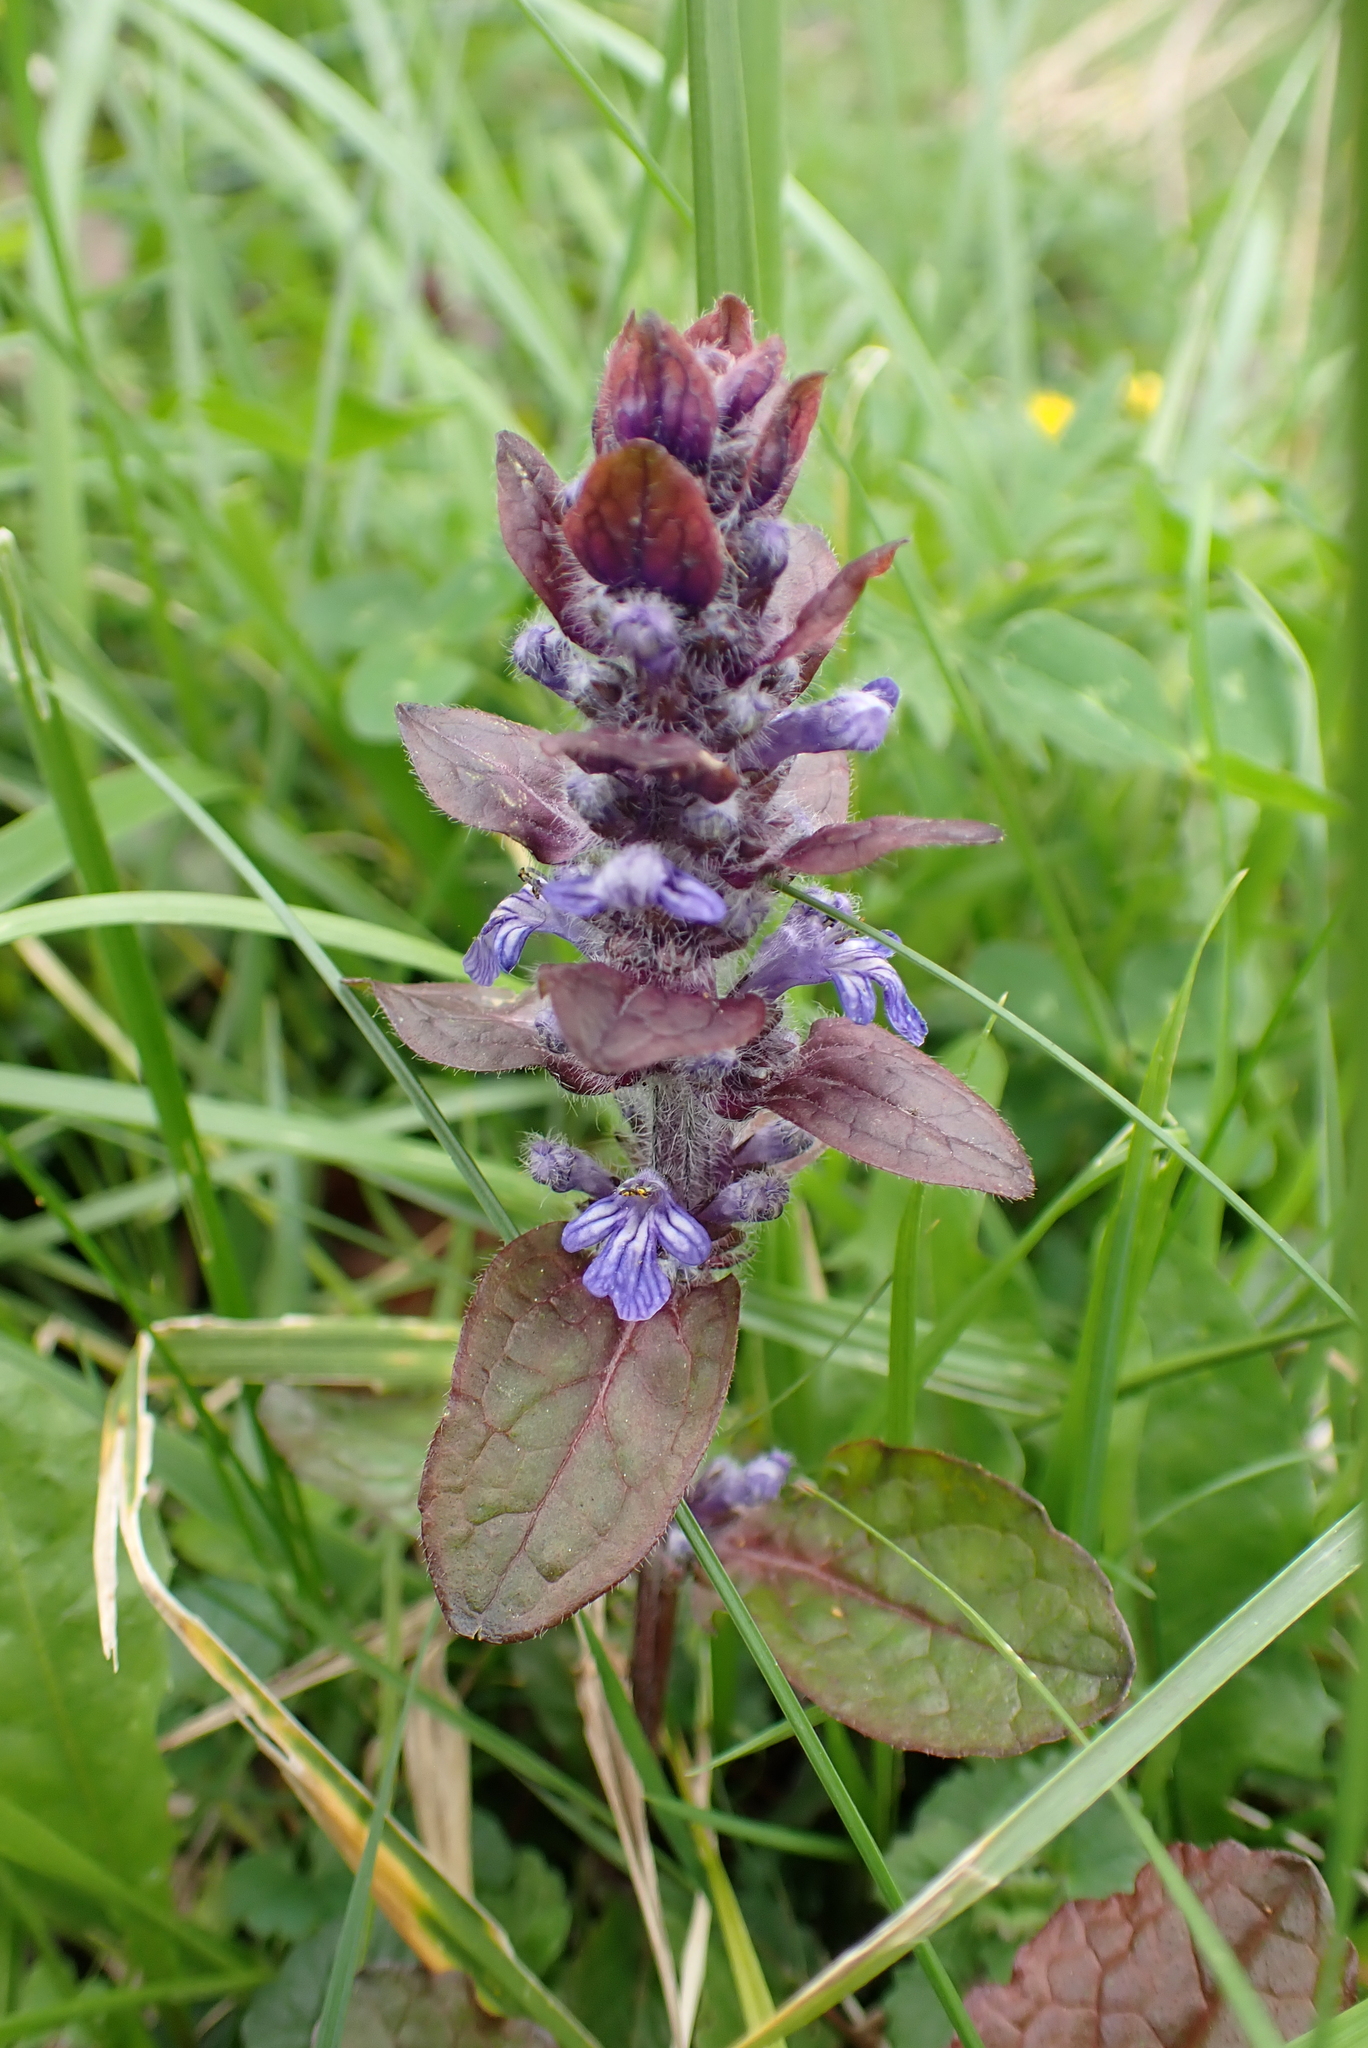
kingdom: Plantae
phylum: Tracheophyta
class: Magnoliopsida
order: Lamiales
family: Lamiaceae
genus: Ajuga
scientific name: Ajuga reptans
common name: Bugle
